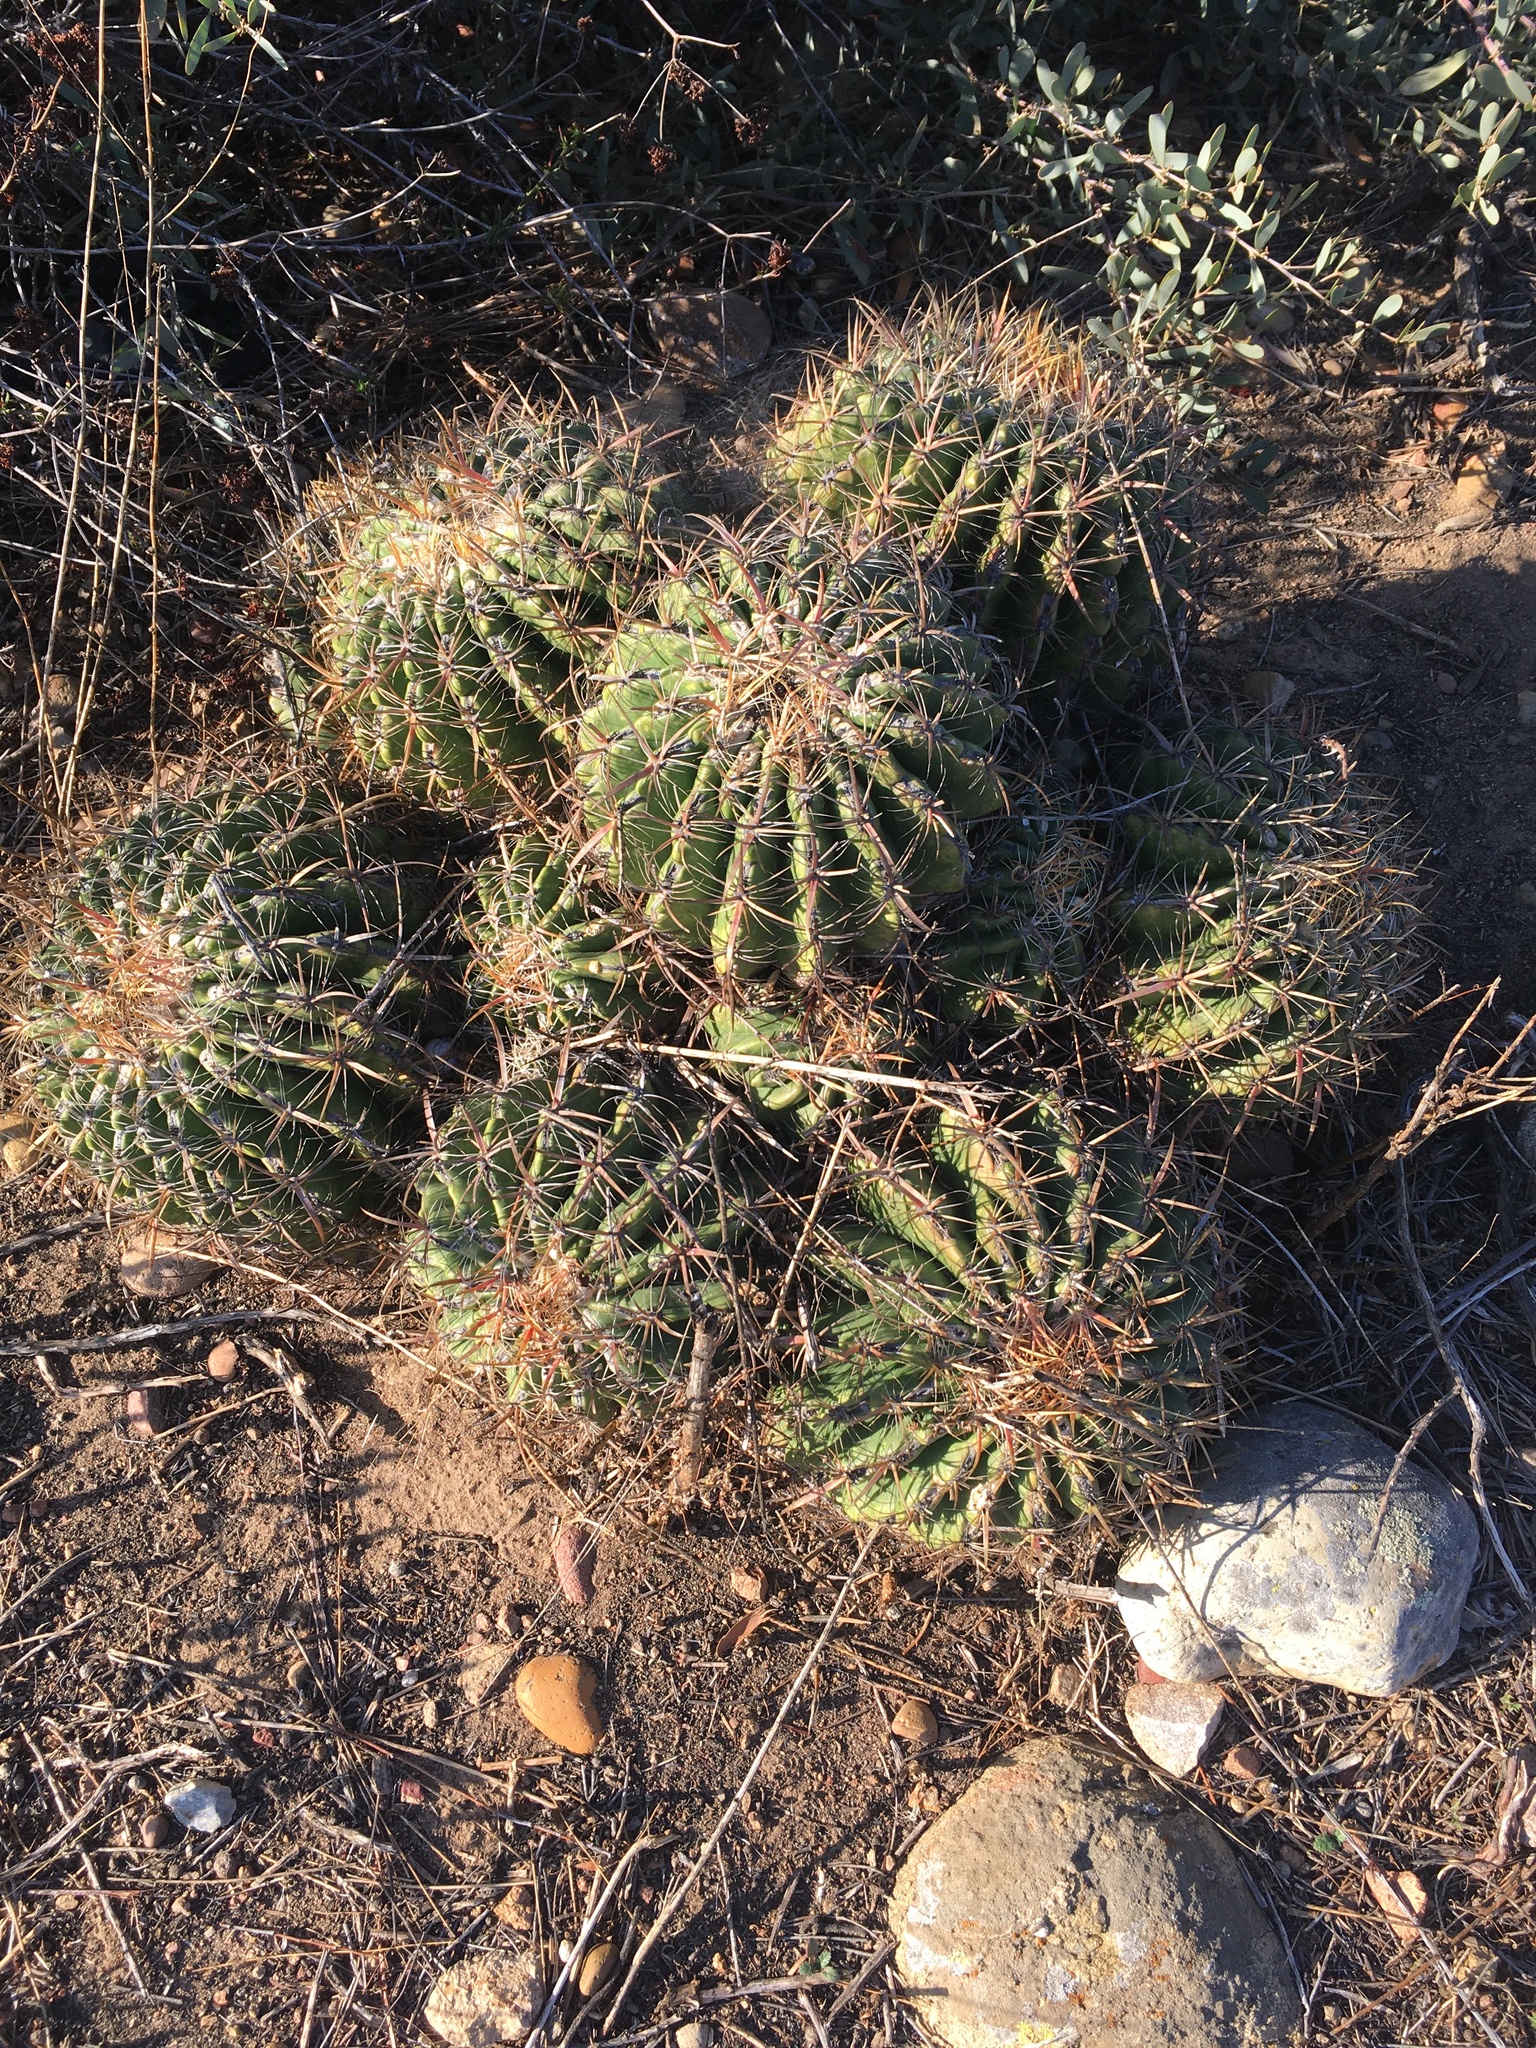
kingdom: Plantae
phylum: Tracheophyta
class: Magnoliopsida
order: Caryophyllales
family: Cactaceae
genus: Ferocactus
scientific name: Ferocactus viridescens
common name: San diego barrel cactus
